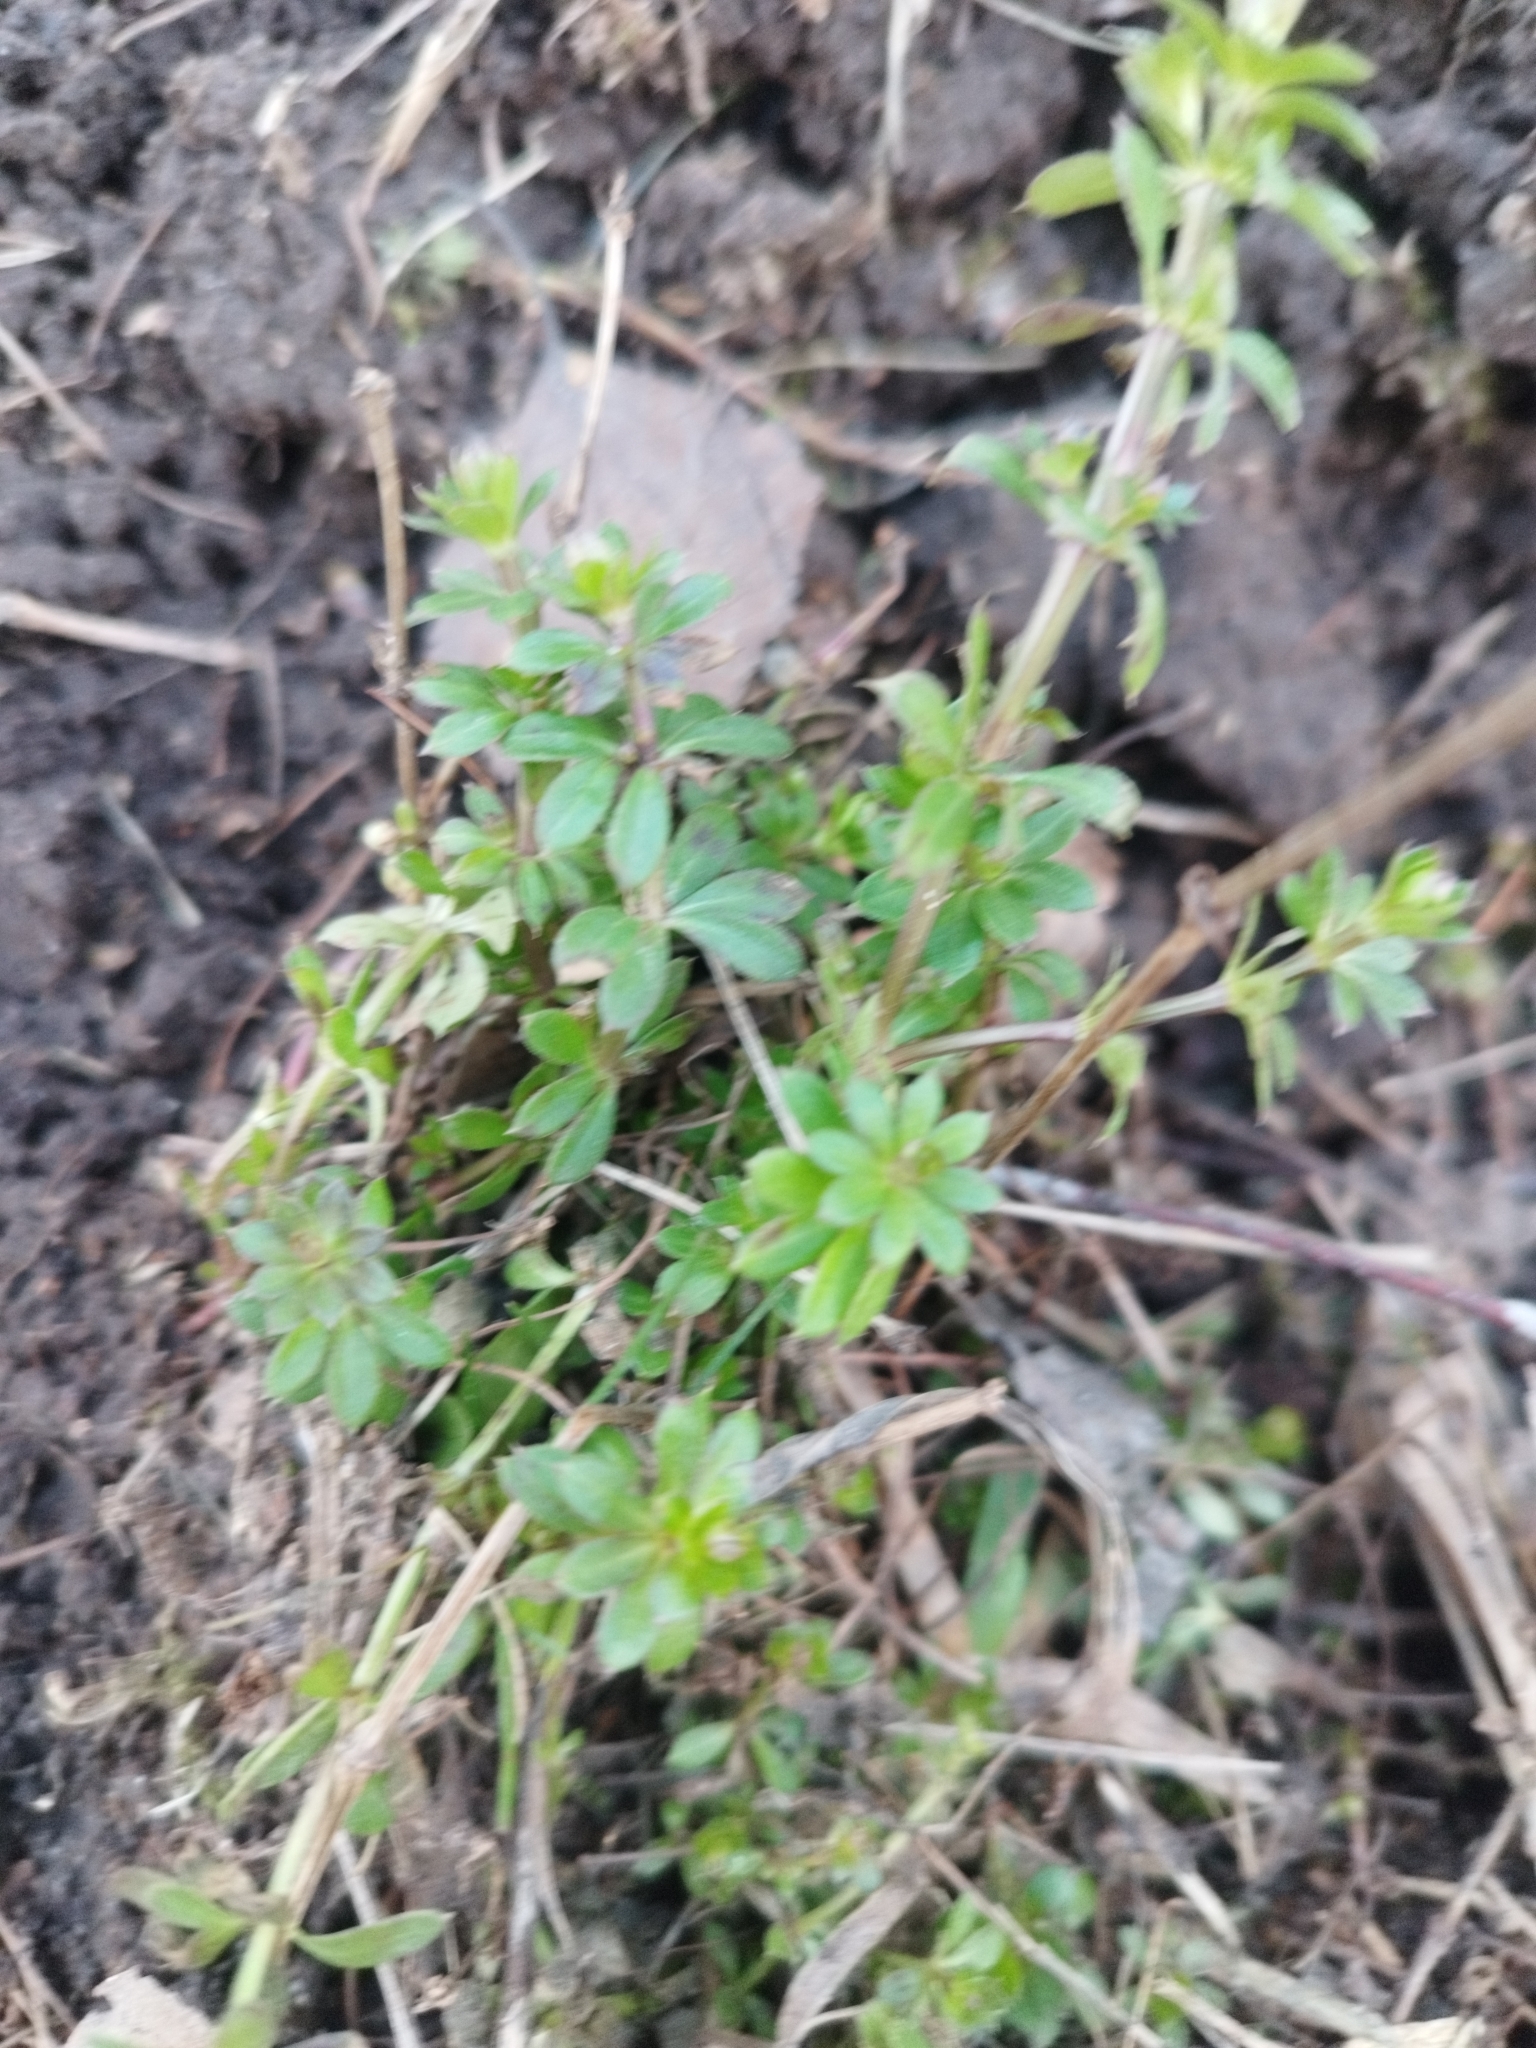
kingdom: Plantae
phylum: Tracheophyta
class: Magnoliopsida
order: Gentianales
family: Rubiaceae
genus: Galium
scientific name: Galium mollugo
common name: Hedge bedstraw
